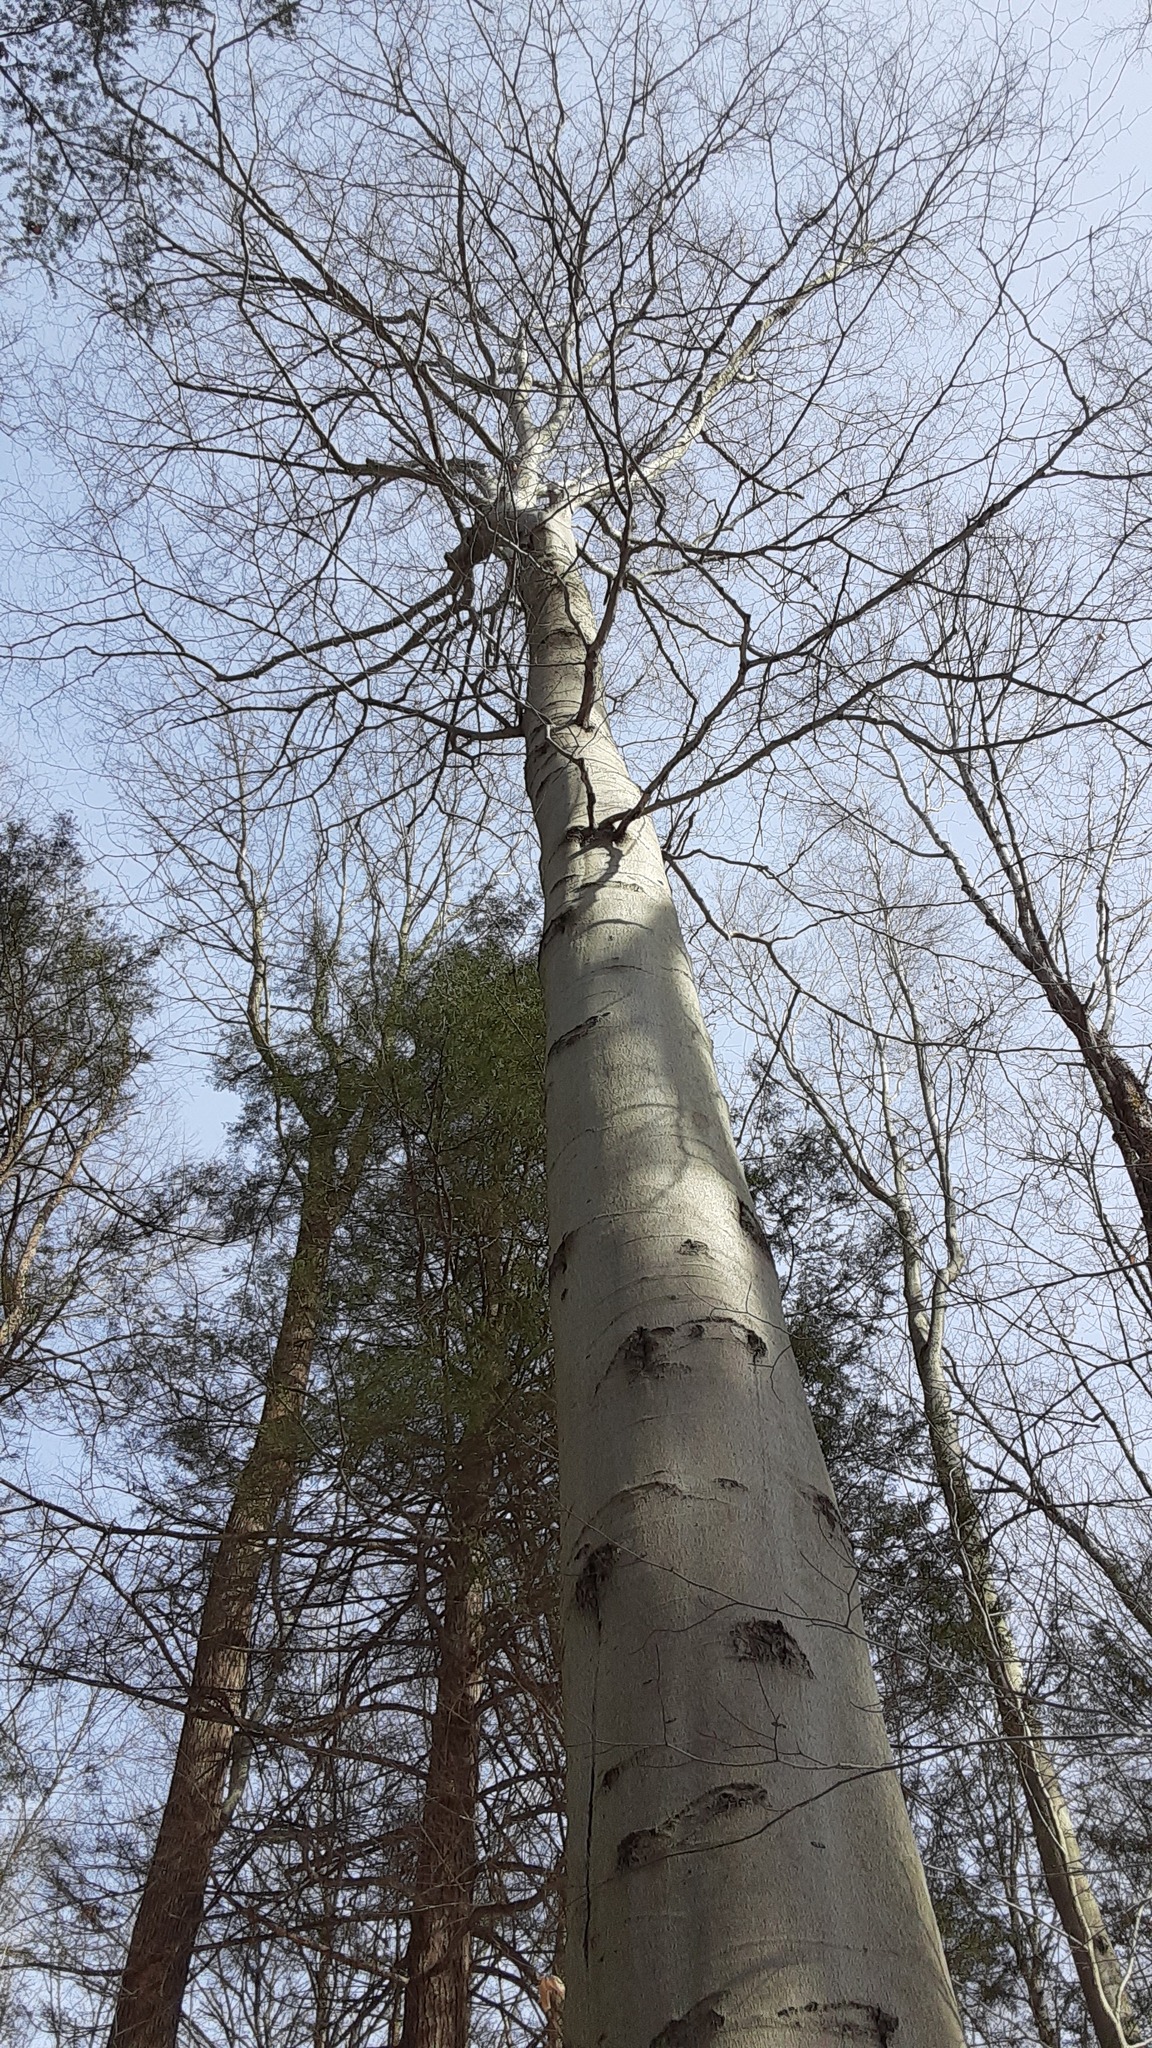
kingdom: Plantae
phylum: Tracheophyta
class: Magnoliopsida
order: Fagales
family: Fagaceae
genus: Fagus
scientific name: Fagus grandifolia
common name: American beech
